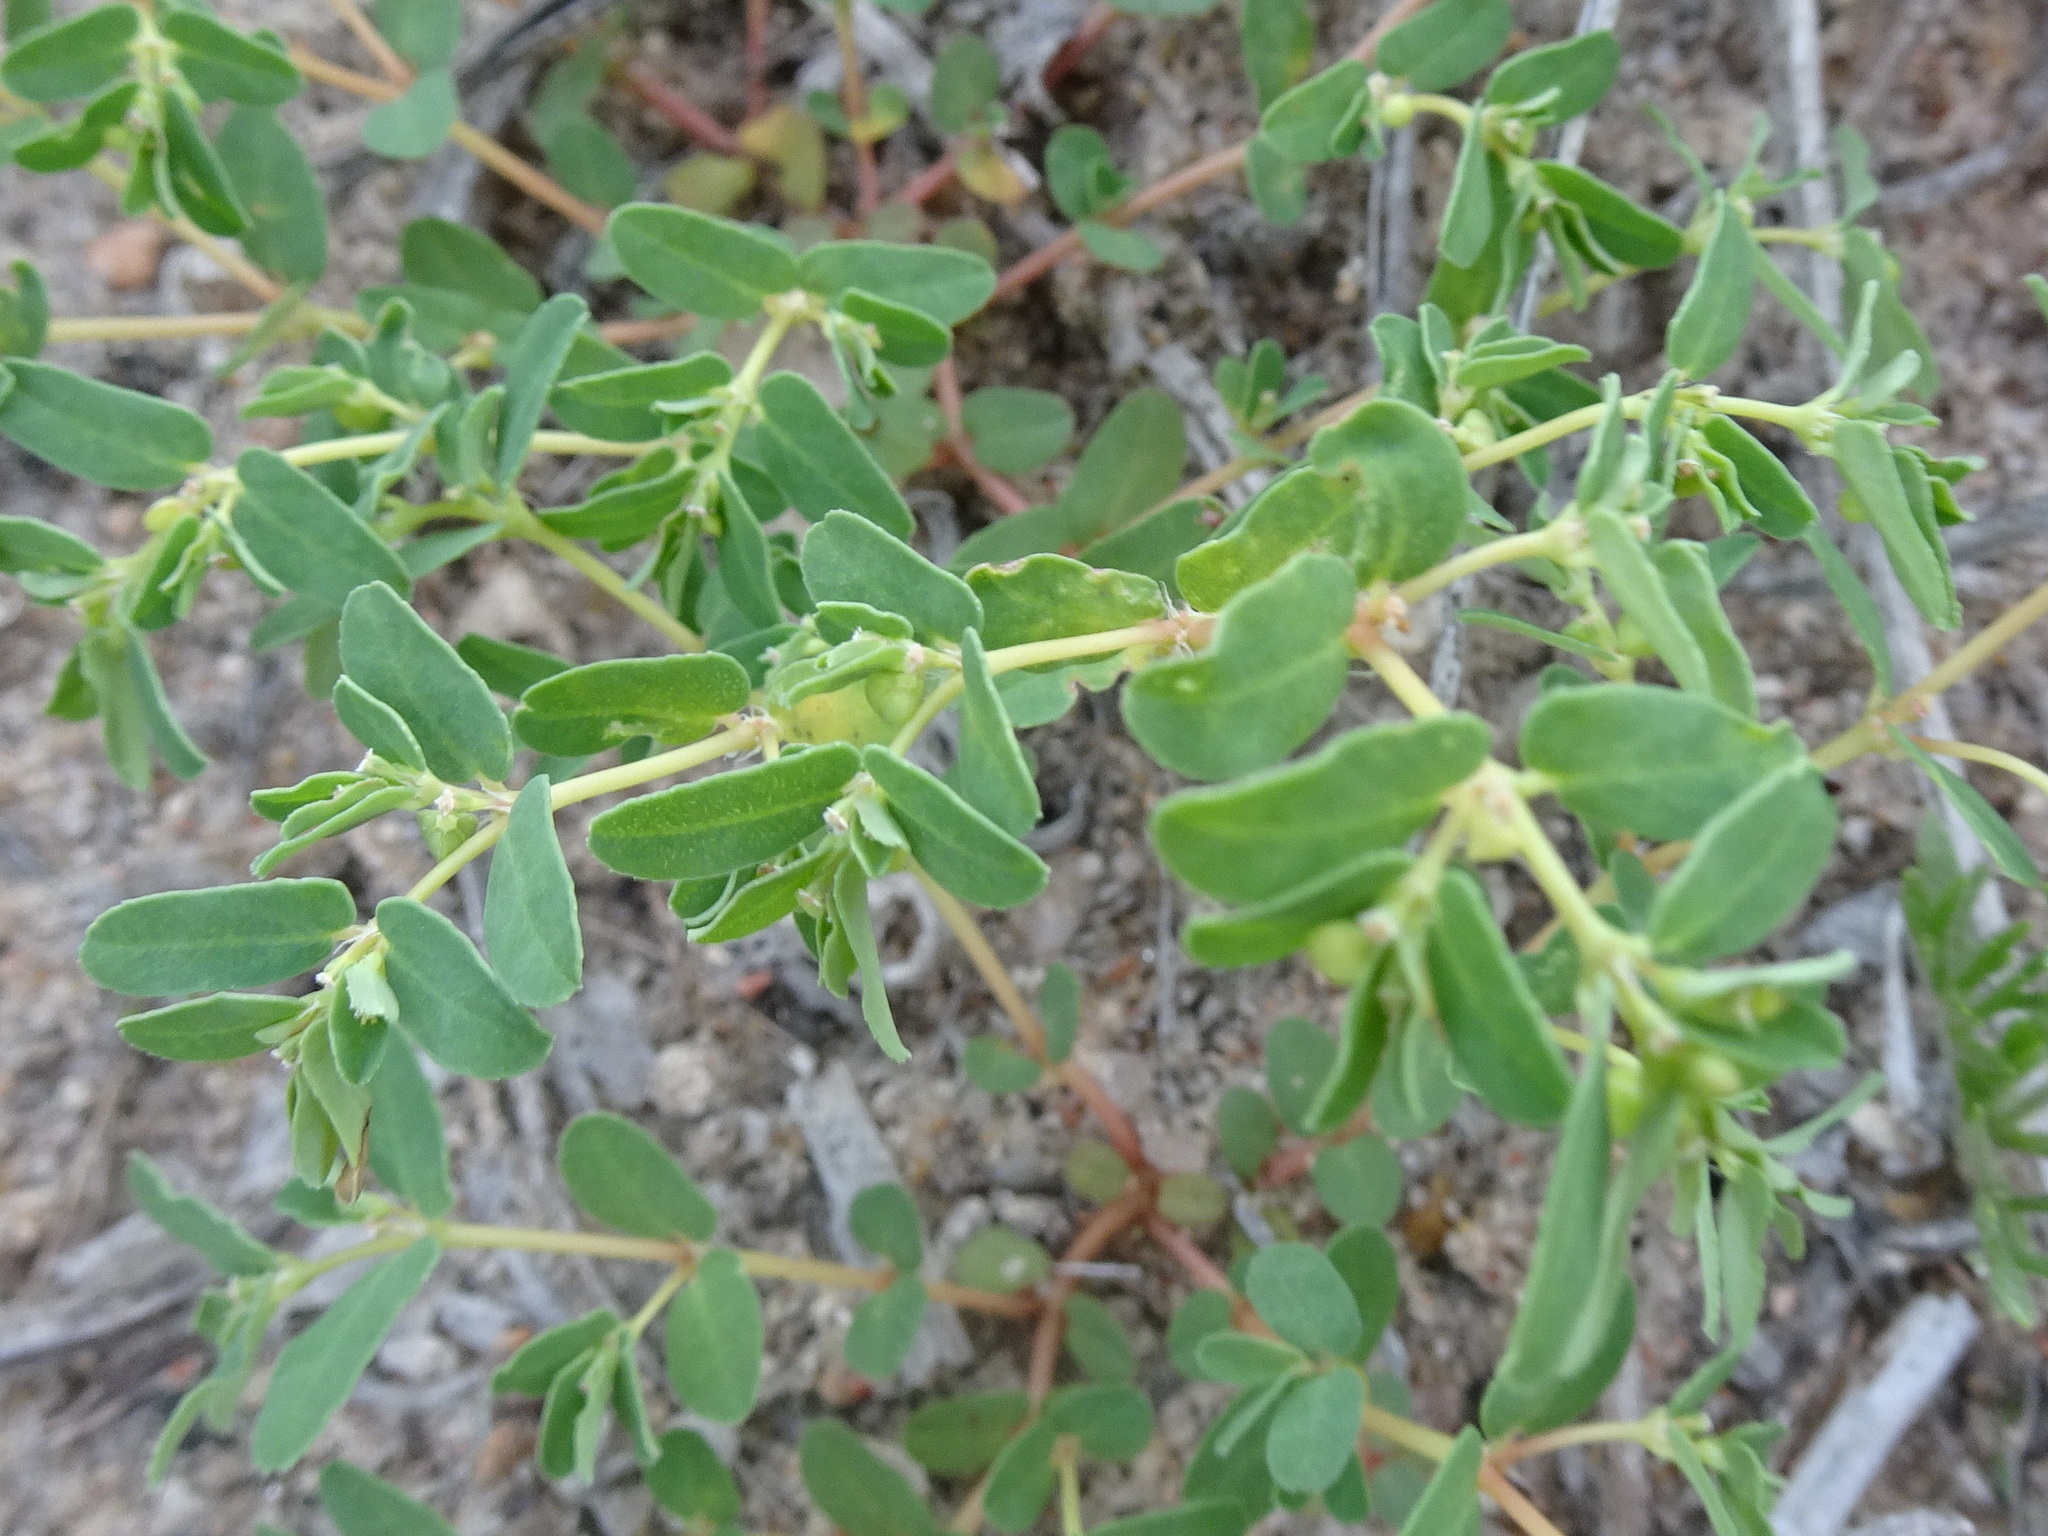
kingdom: Plantae
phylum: Tracheophyta
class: Magnoliopsida
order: Malpighiales
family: Euphorbiaceae
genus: Euphorbia
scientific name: Euphorbia glyptosperma
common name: Corrugate-seeded spurge
